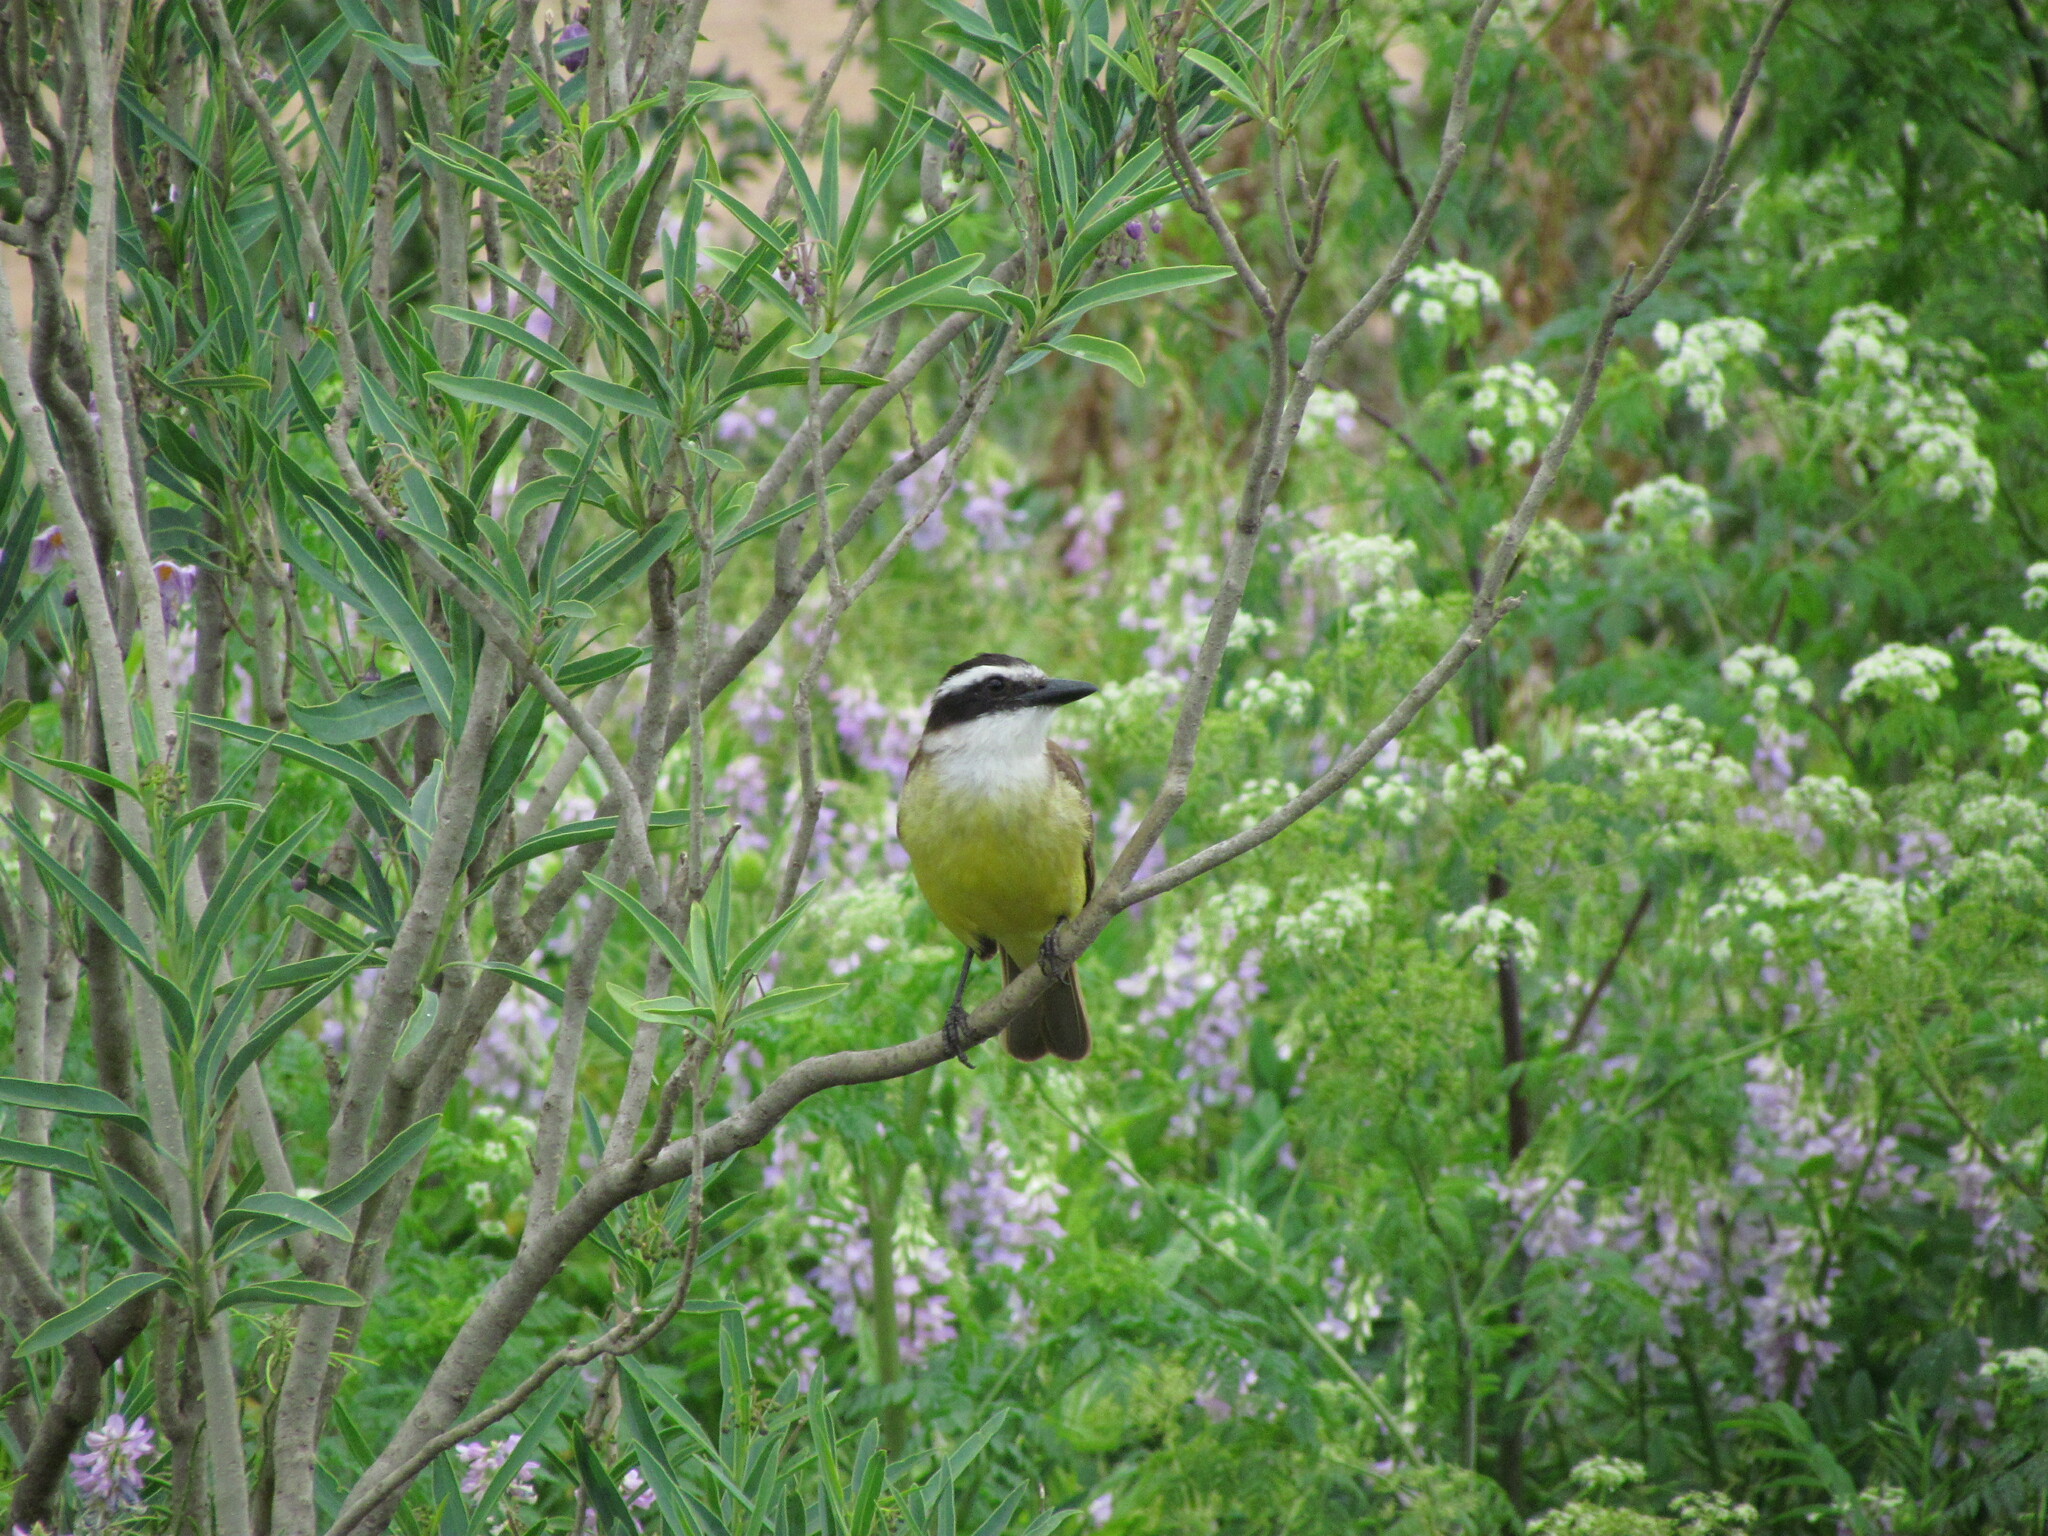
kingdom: Animalia
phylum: Chordata
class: Aves
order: Passeriformes
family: Tyrannidae
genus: Pitangus
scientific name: Pitangus sulphuratus
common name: Great kiskadee
